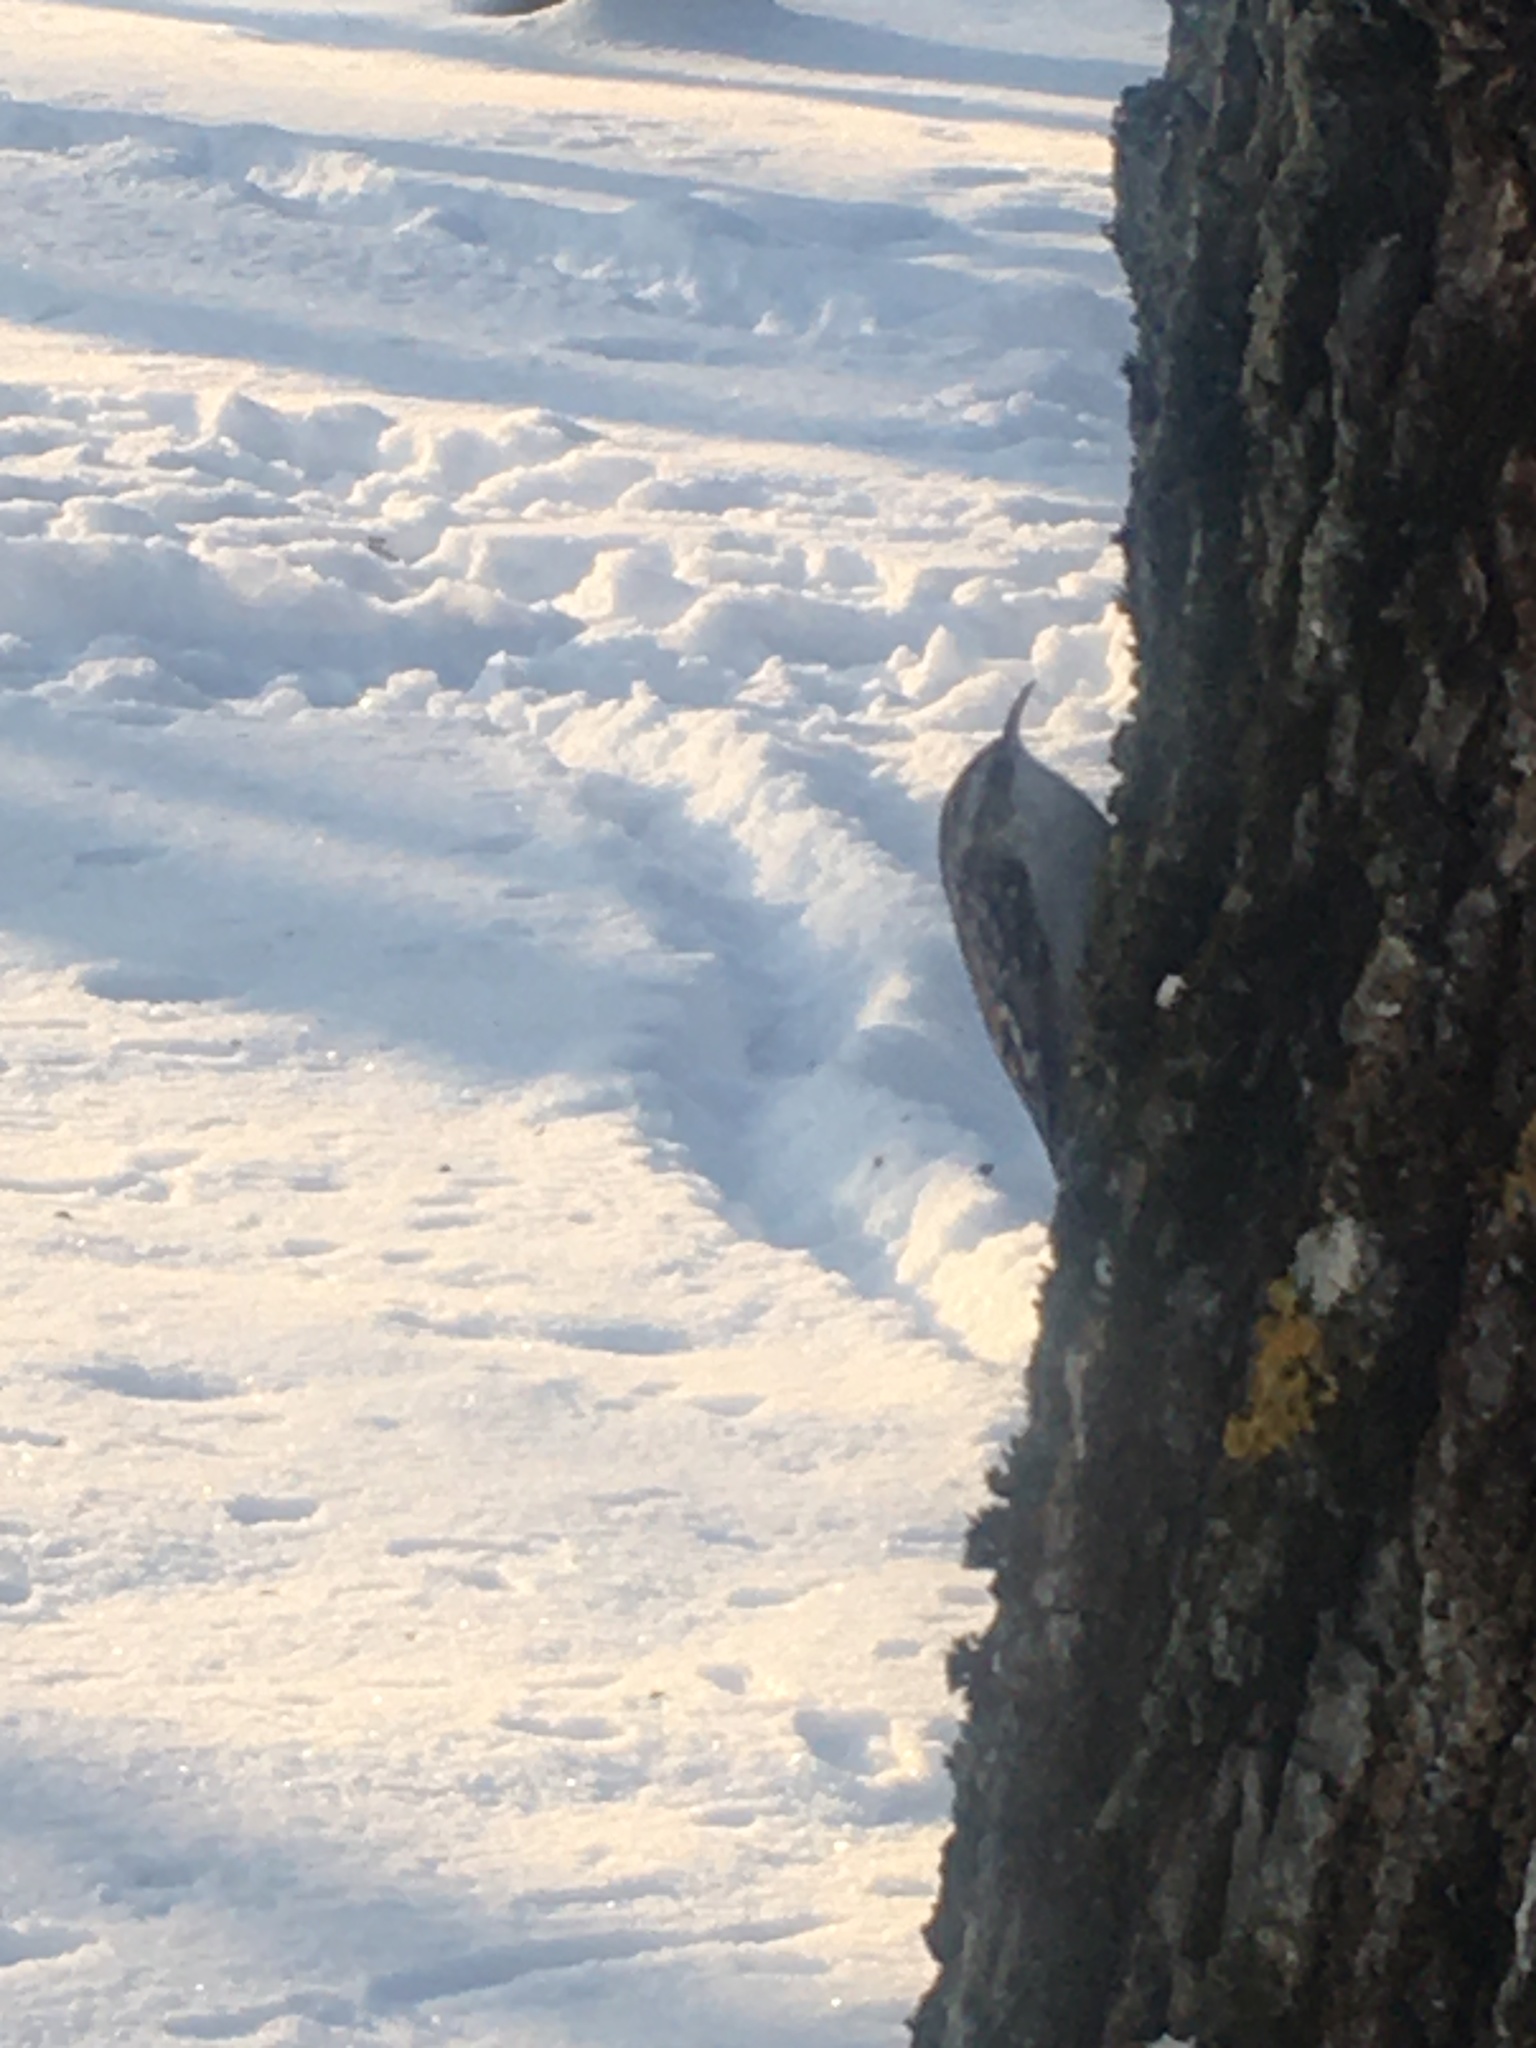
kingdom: Animalia
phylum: Chordata
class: Aves
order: Passeriformes
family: Certhiidae
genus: Certhia
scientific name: Certhia familiaris
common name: Eurasian treecreeper
